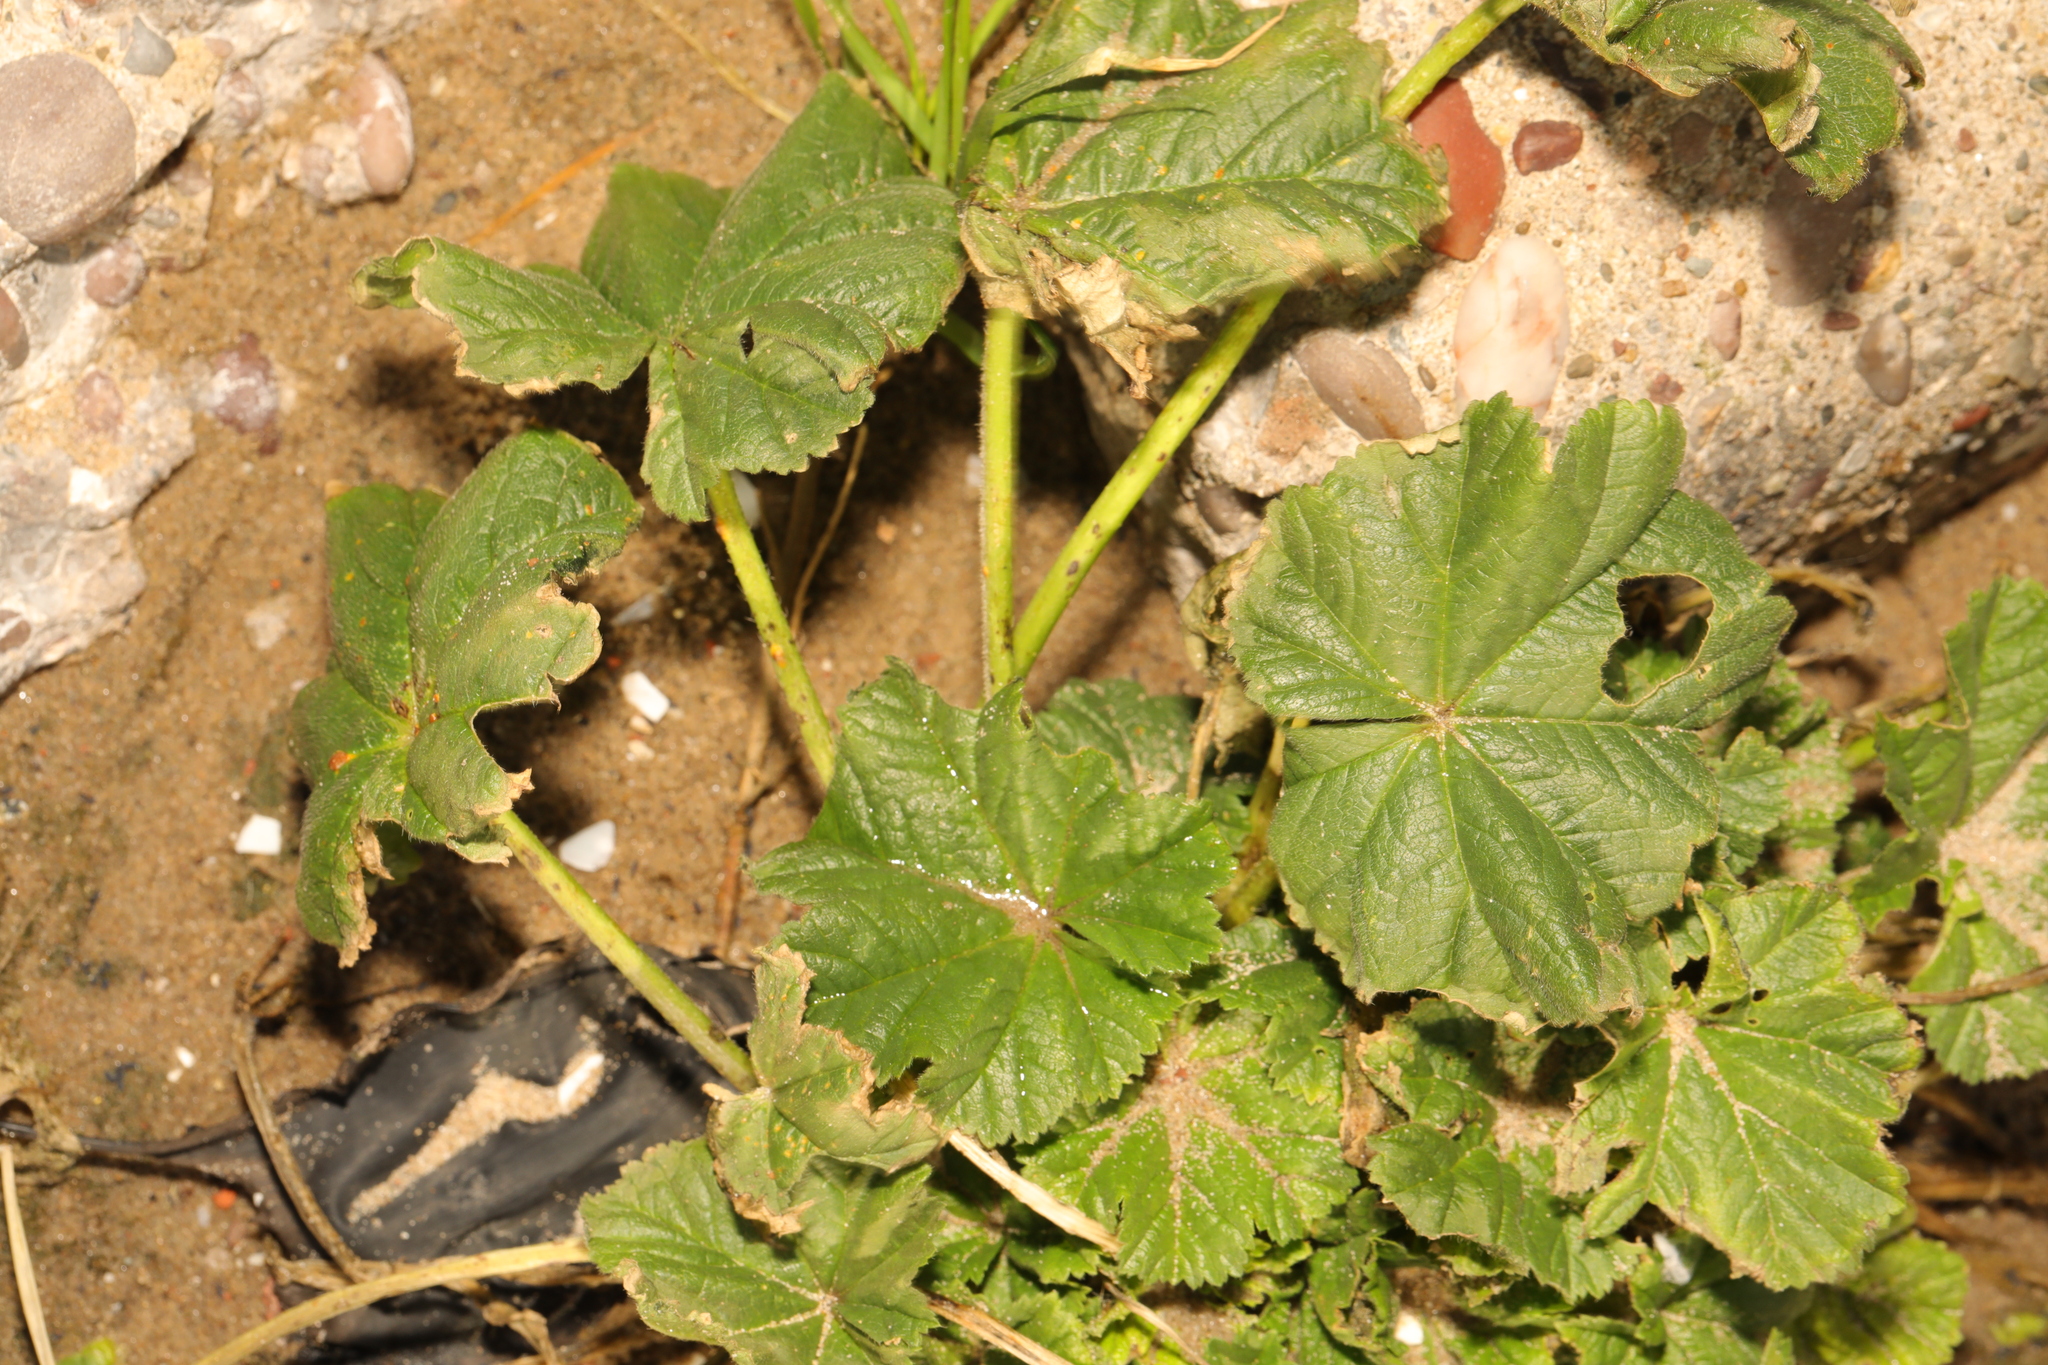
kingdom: Plantae
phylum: Tracheophyta
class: Magnoliopsida
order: Malvales
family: Malvaceae
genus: Malva
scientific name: Malva sylvestris
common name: Common mallow
